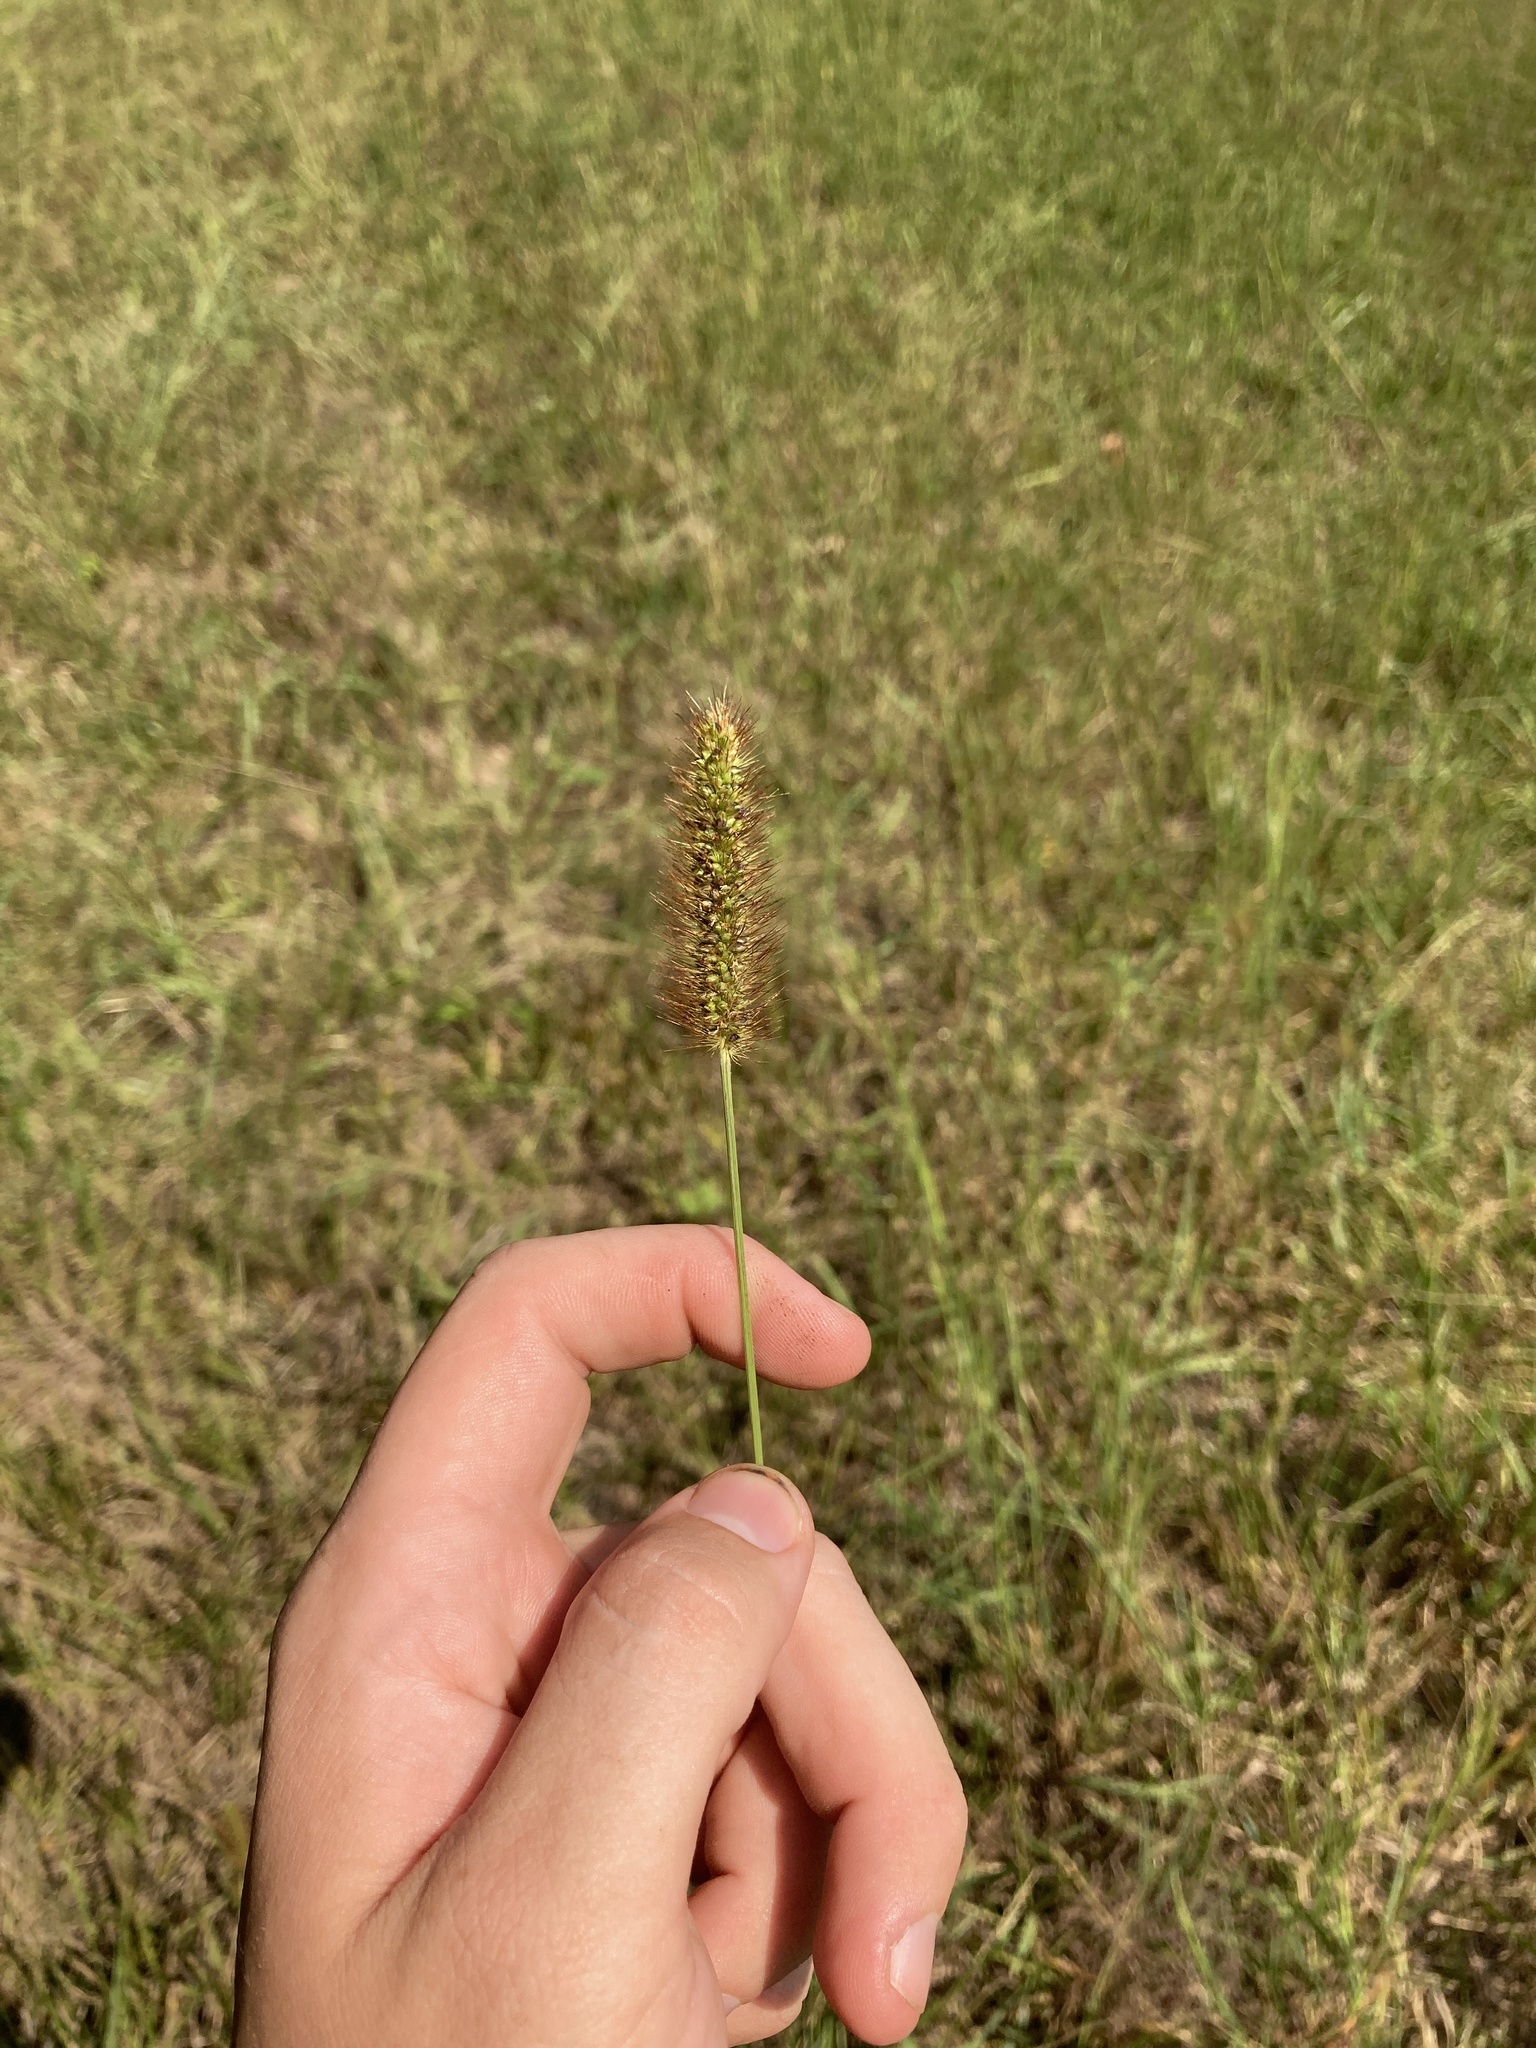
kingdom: Plantae
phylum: Tracheophyta
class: Liliopsida
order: Poales
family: Poaceae
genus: Setaria
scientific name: Setaria parviflora
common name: Knotroot bristle-grass
